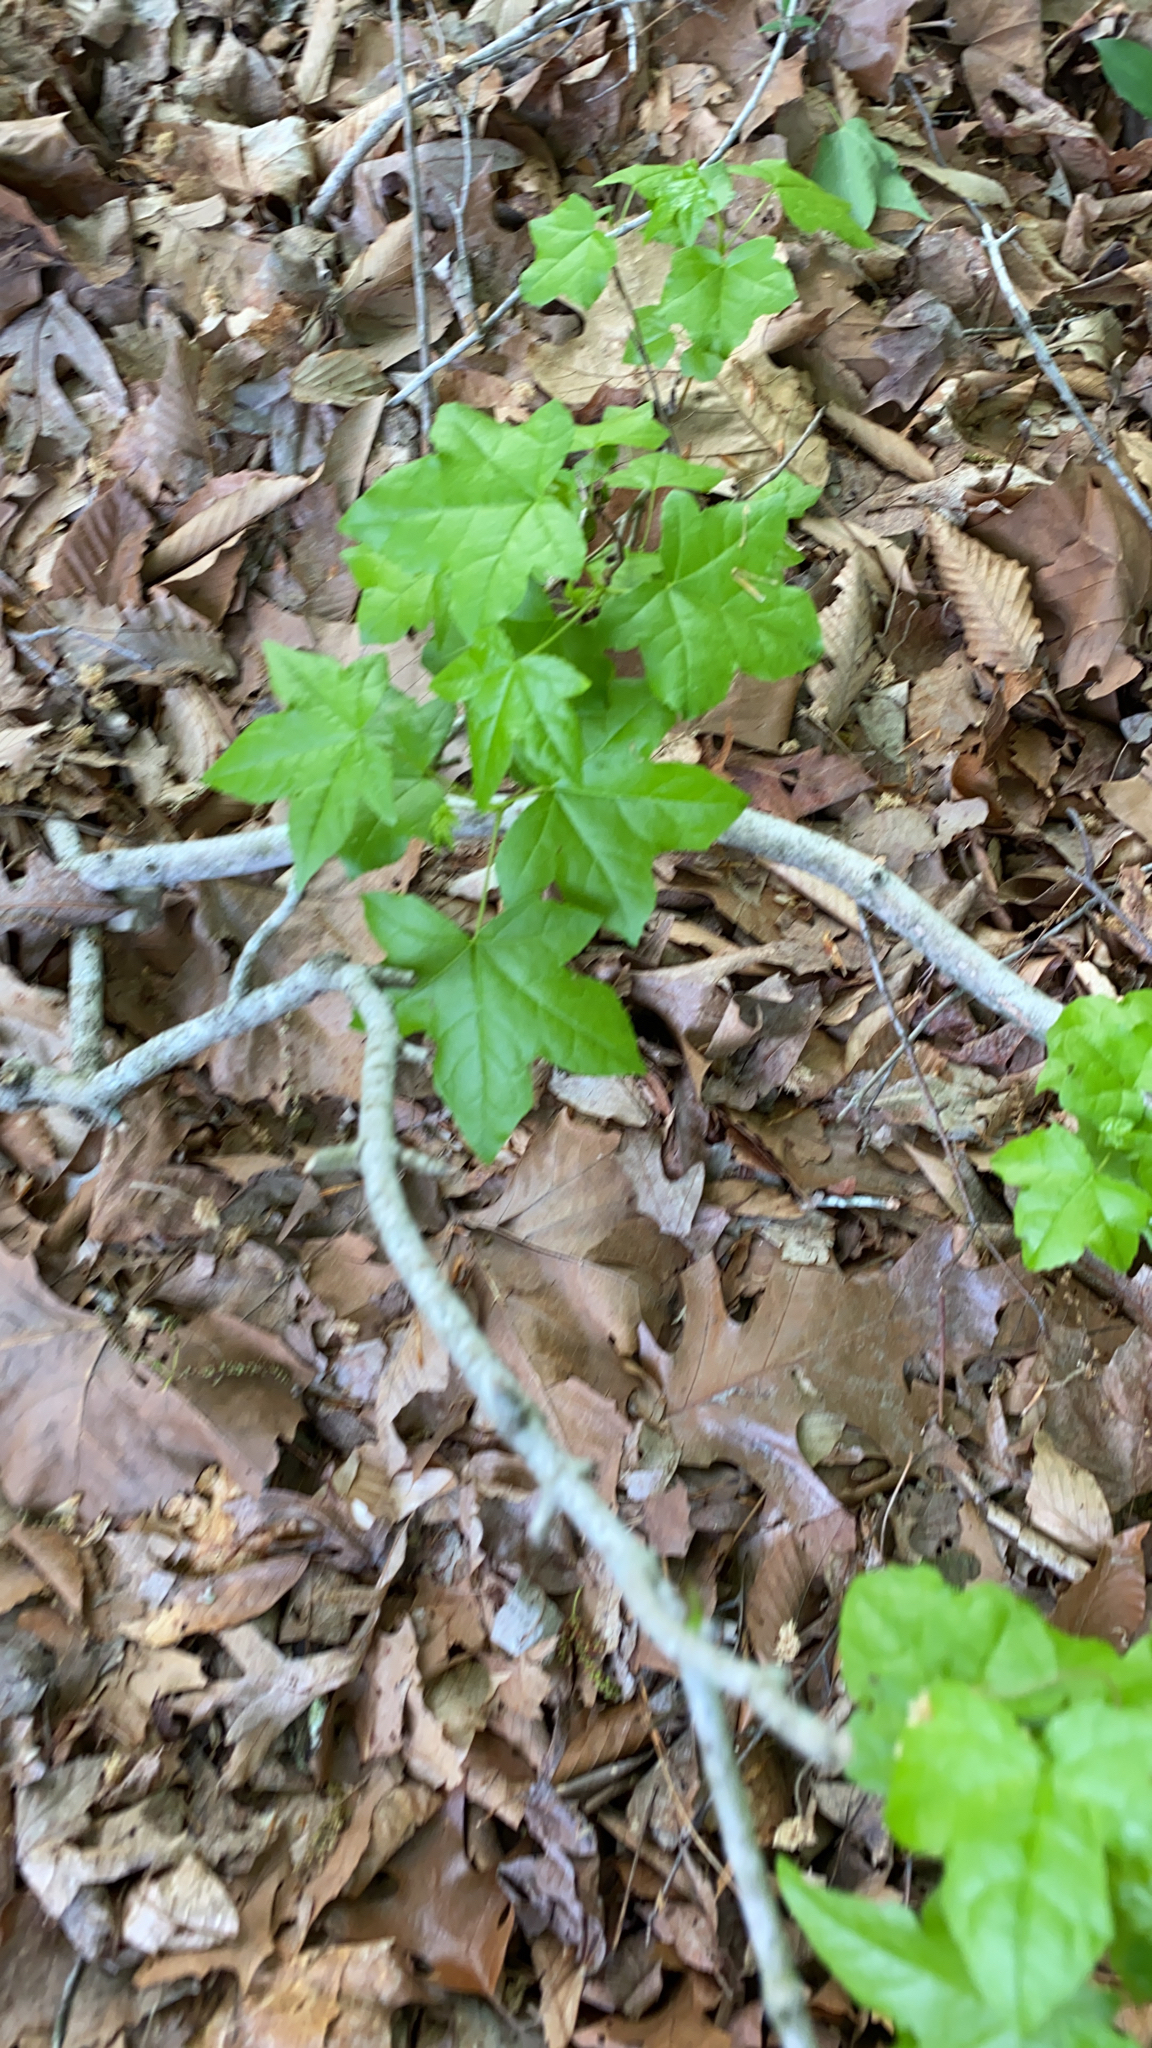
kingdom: Plantae
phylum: Tracheophyta
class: Magnoliopsida
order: Saxifragales
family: Altingiaceae
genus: Liquidambar
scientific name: Liquidambar styraciflua
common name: Sweet gum
